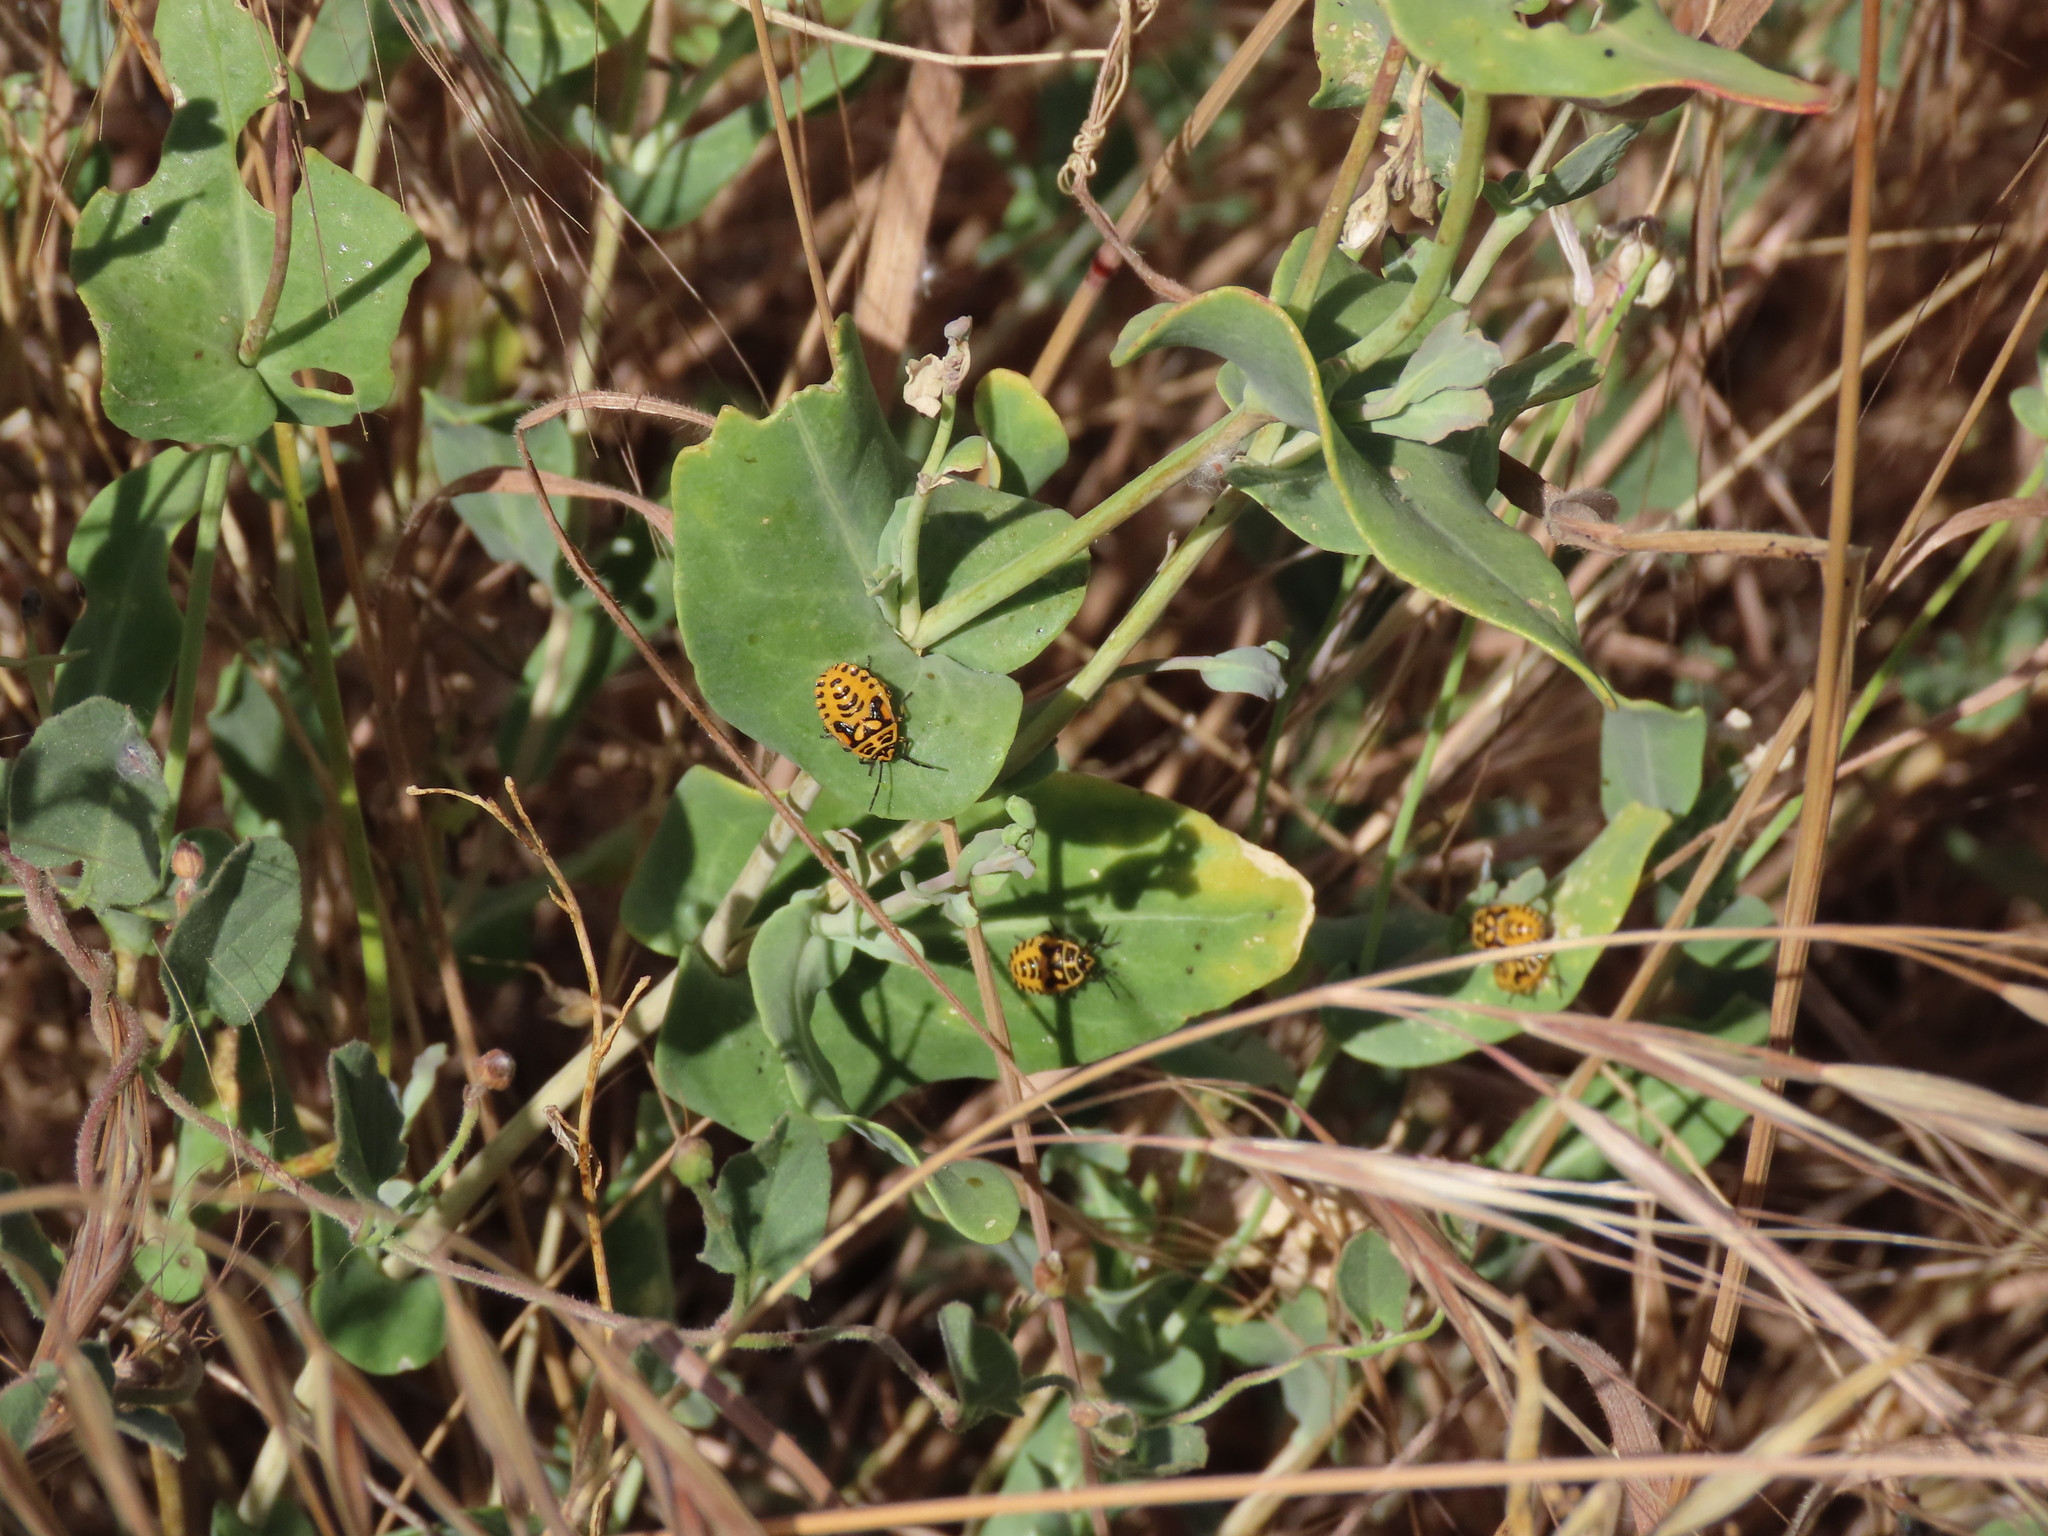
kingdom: Animalia
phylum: Arthropoda
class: Insecta
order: Hemiptera
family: Pentatomidae
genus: Eurydema
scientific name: Eurydema ventralis
